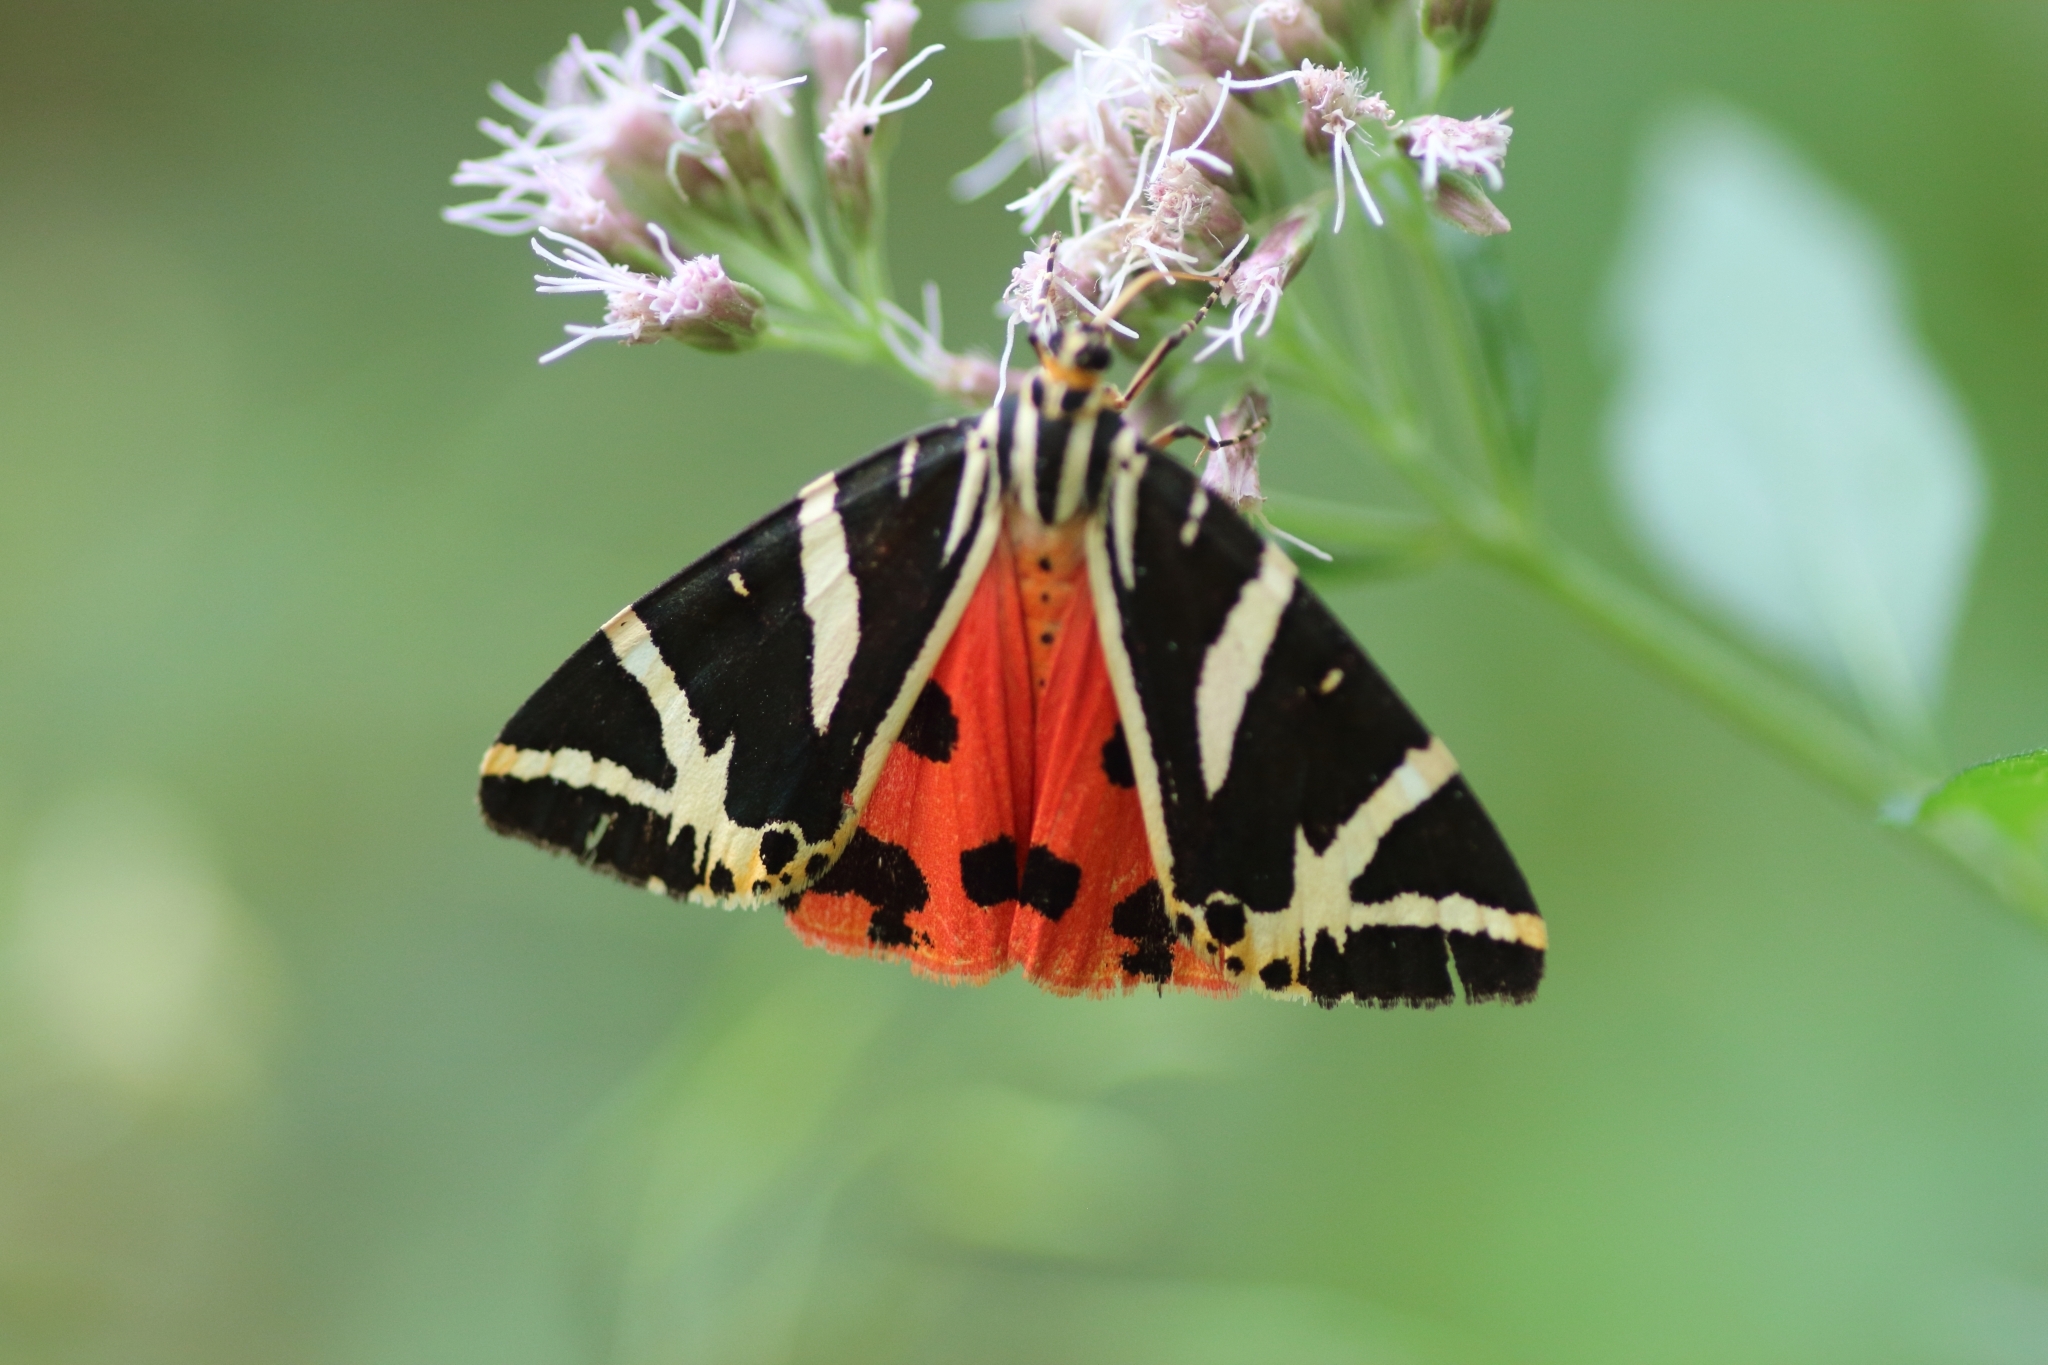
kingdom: Animalia
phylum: Arthropoda
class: Insecta
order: Lepidoptera
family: Erebidae
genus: Euplagia
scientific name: Euplagia quadripunctaria
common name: Jersey tiger
